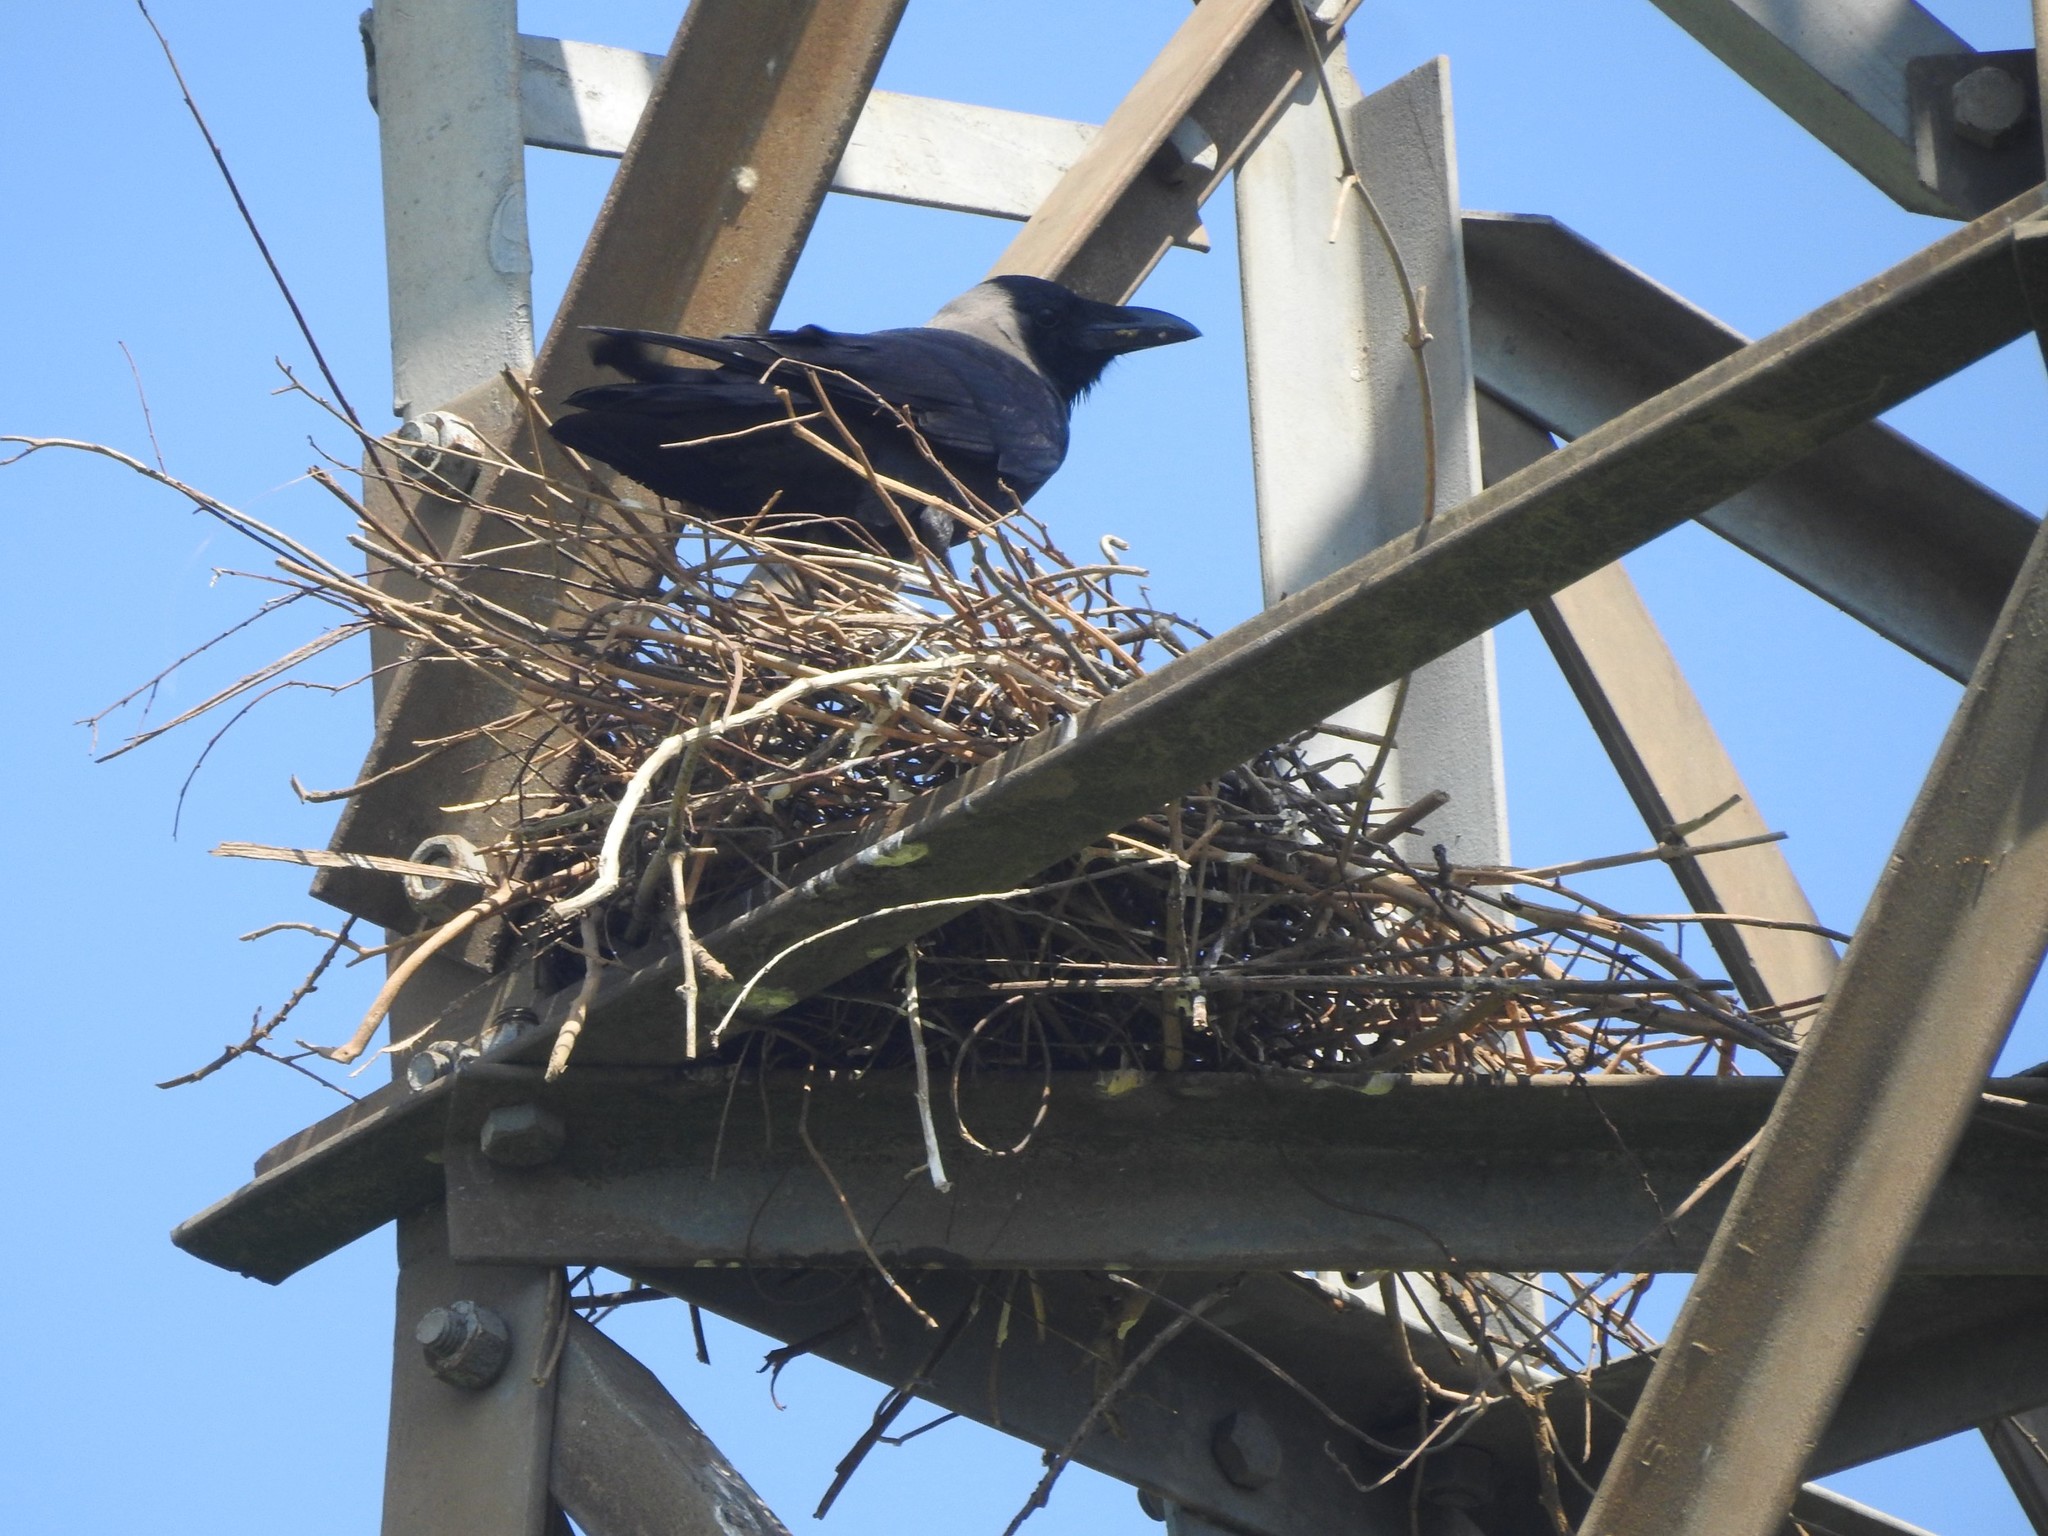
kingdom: Animalia
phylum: Chordata
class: Aves
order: Passeriformes
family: Corvidae
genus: Corvus
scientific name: Corvus splendens
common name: House crow
